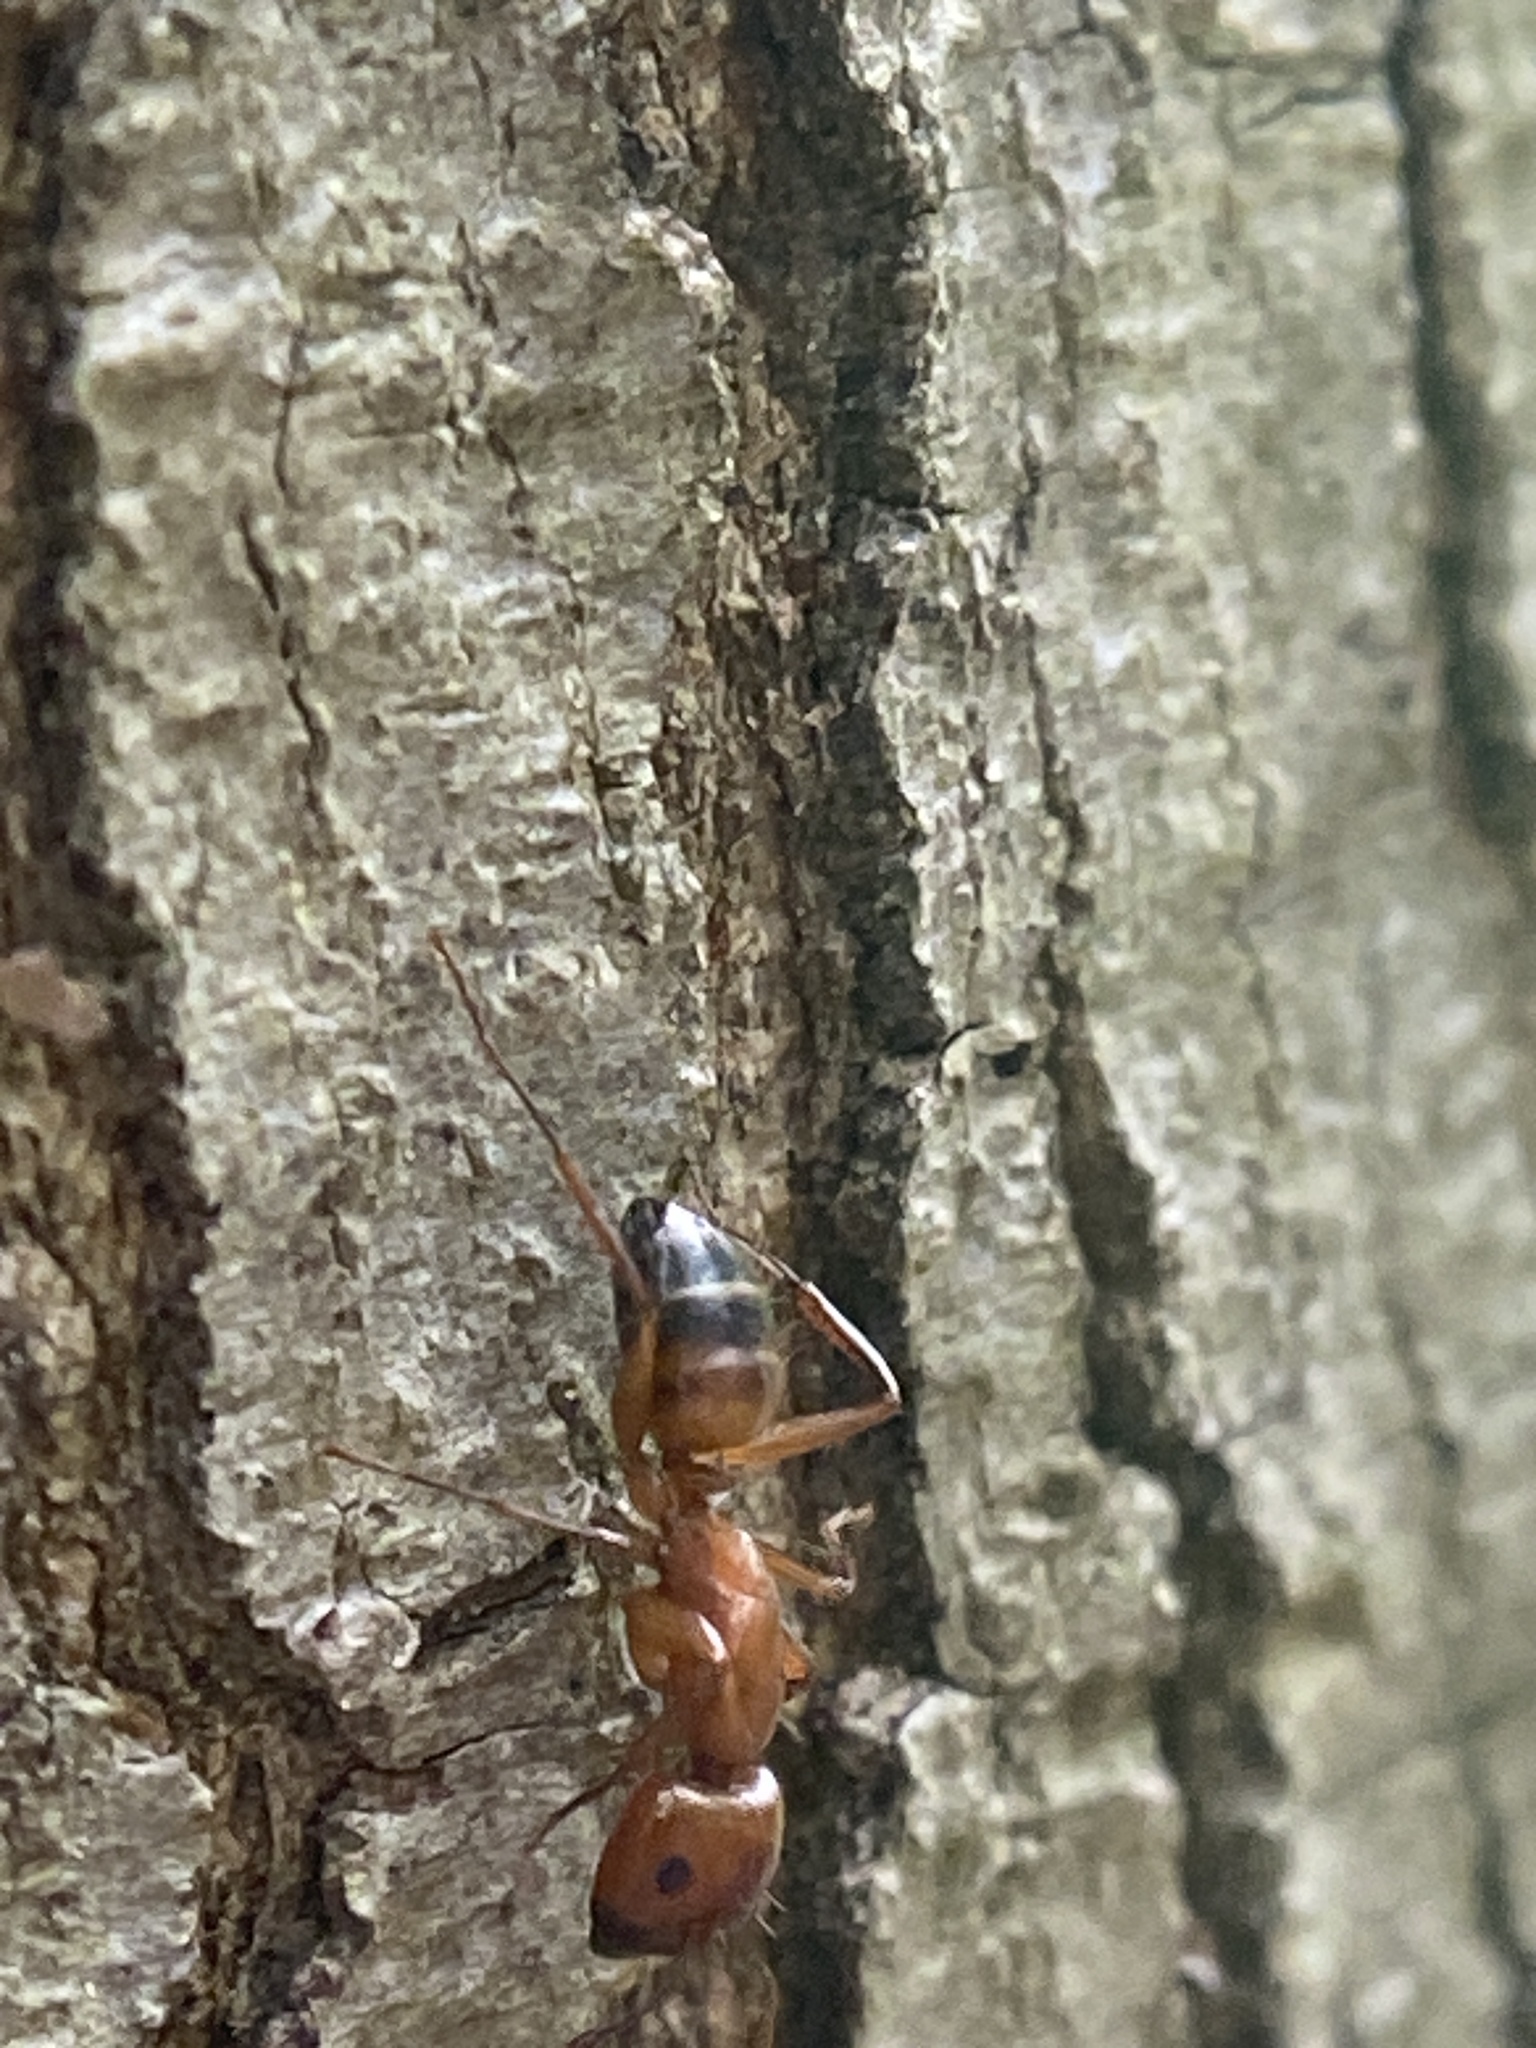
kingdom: Animalia
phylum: Arthropoda
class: Insecta
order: Hymenoptera
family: Formicidae
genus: Camponotus
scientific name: Camponotus snellingi
